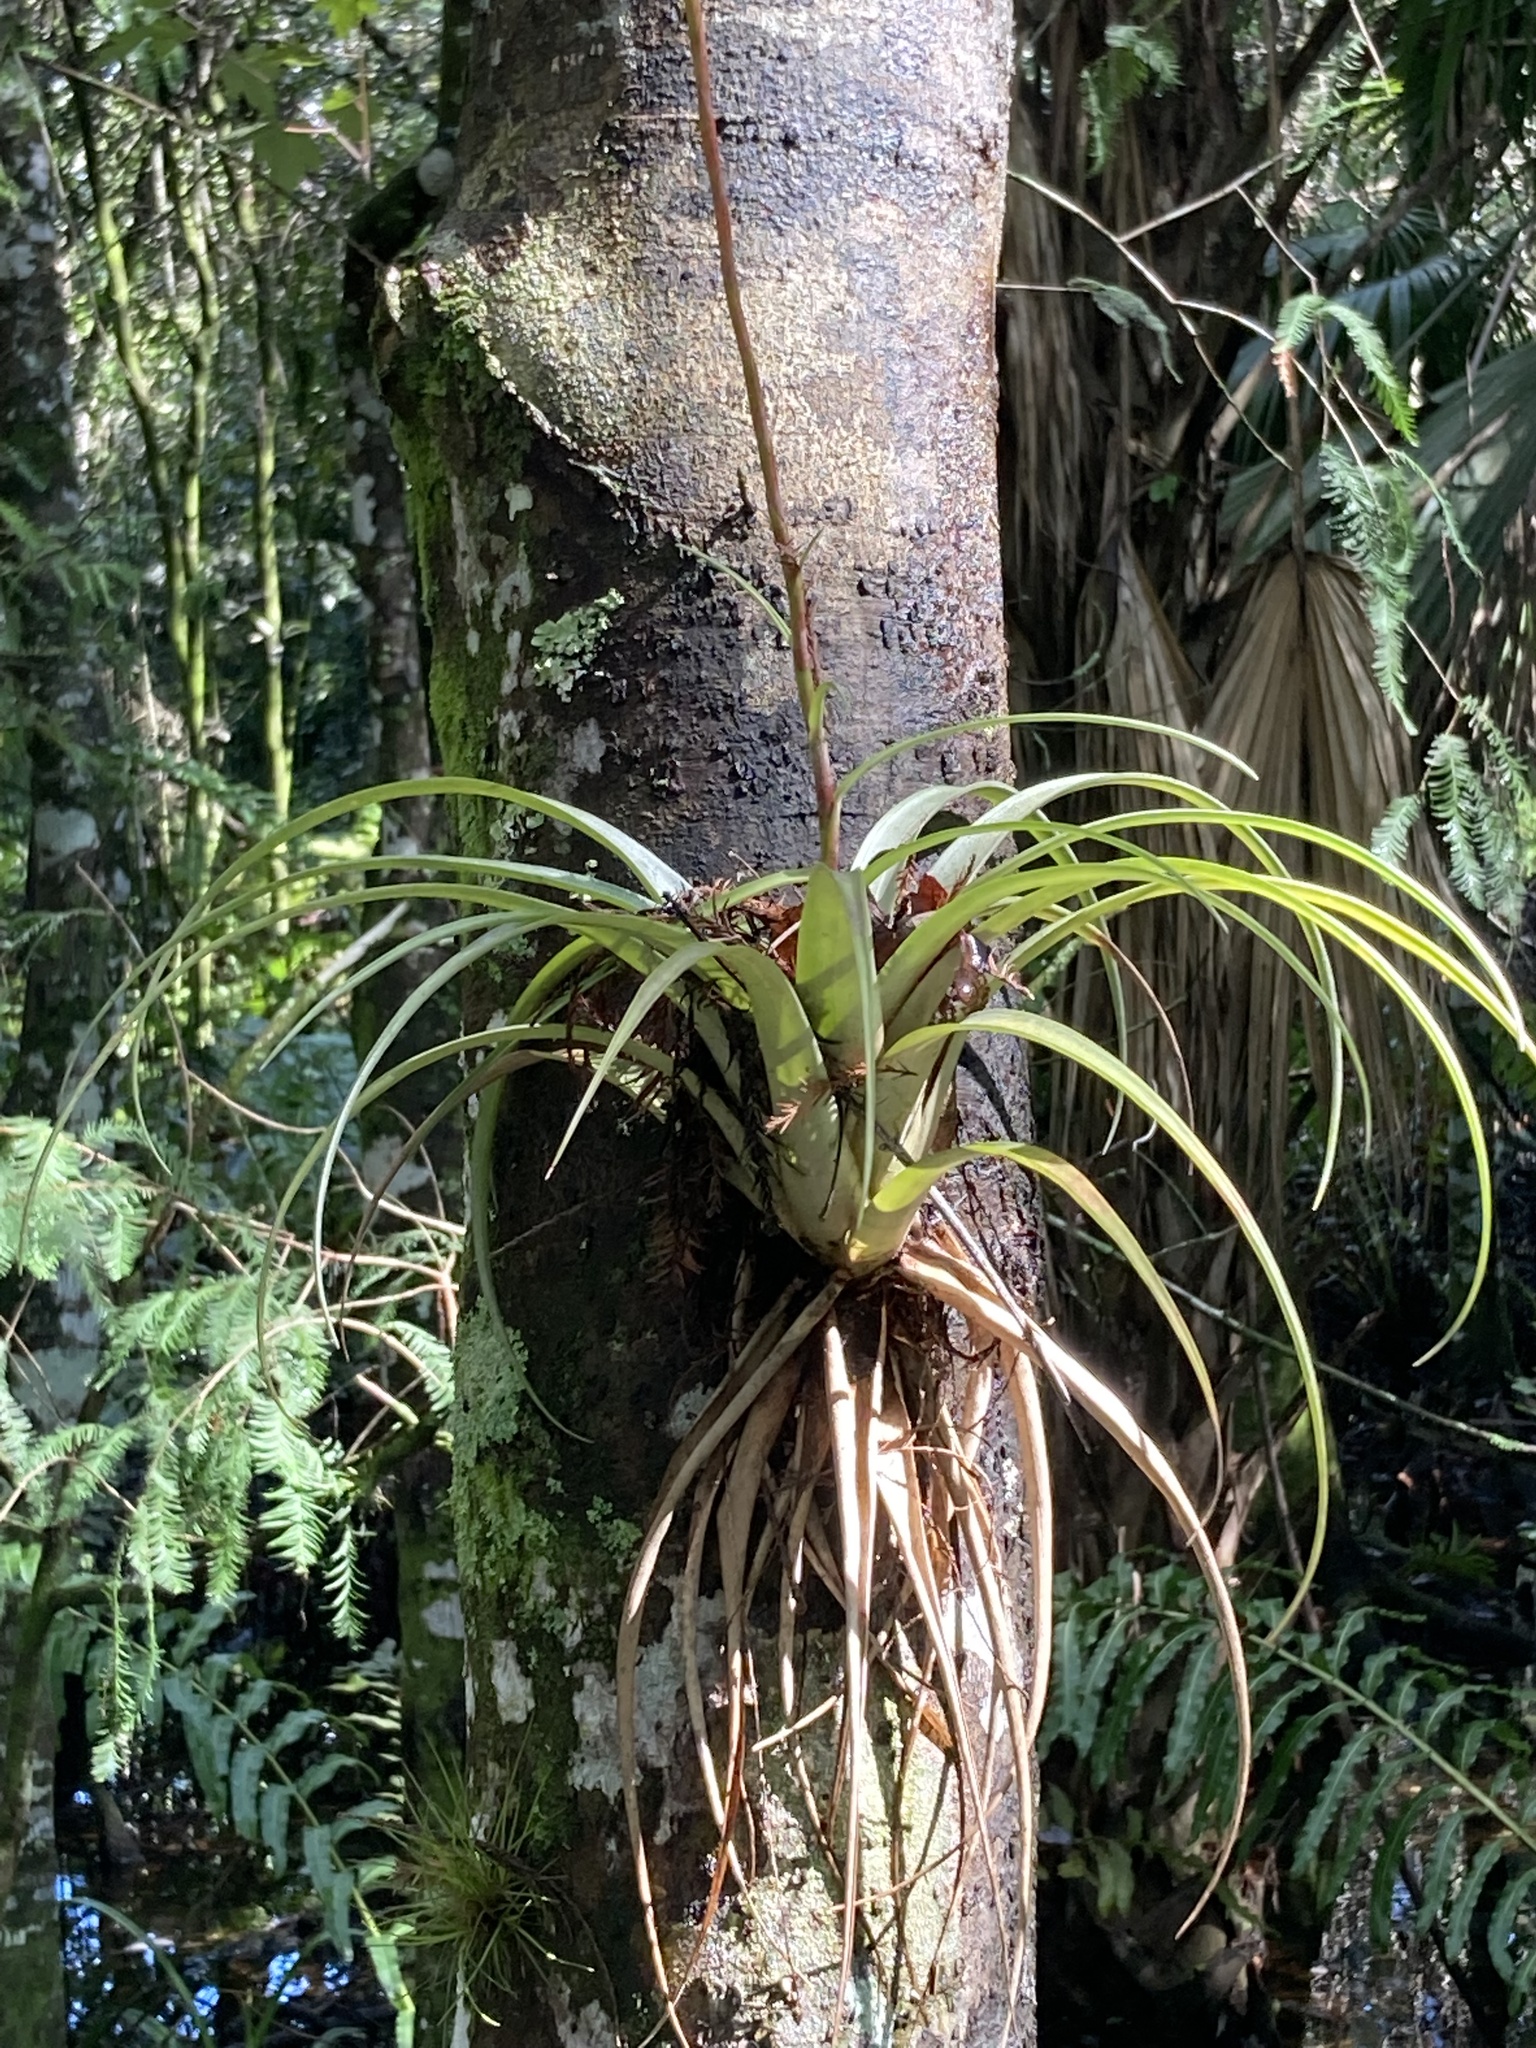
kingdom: Plantae
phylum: Tracheophyta
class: Liliopsida
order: Poales
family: Bromeliaceae
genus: Tillandsia
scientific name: Tillandsia utriculata
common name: Wild pine
